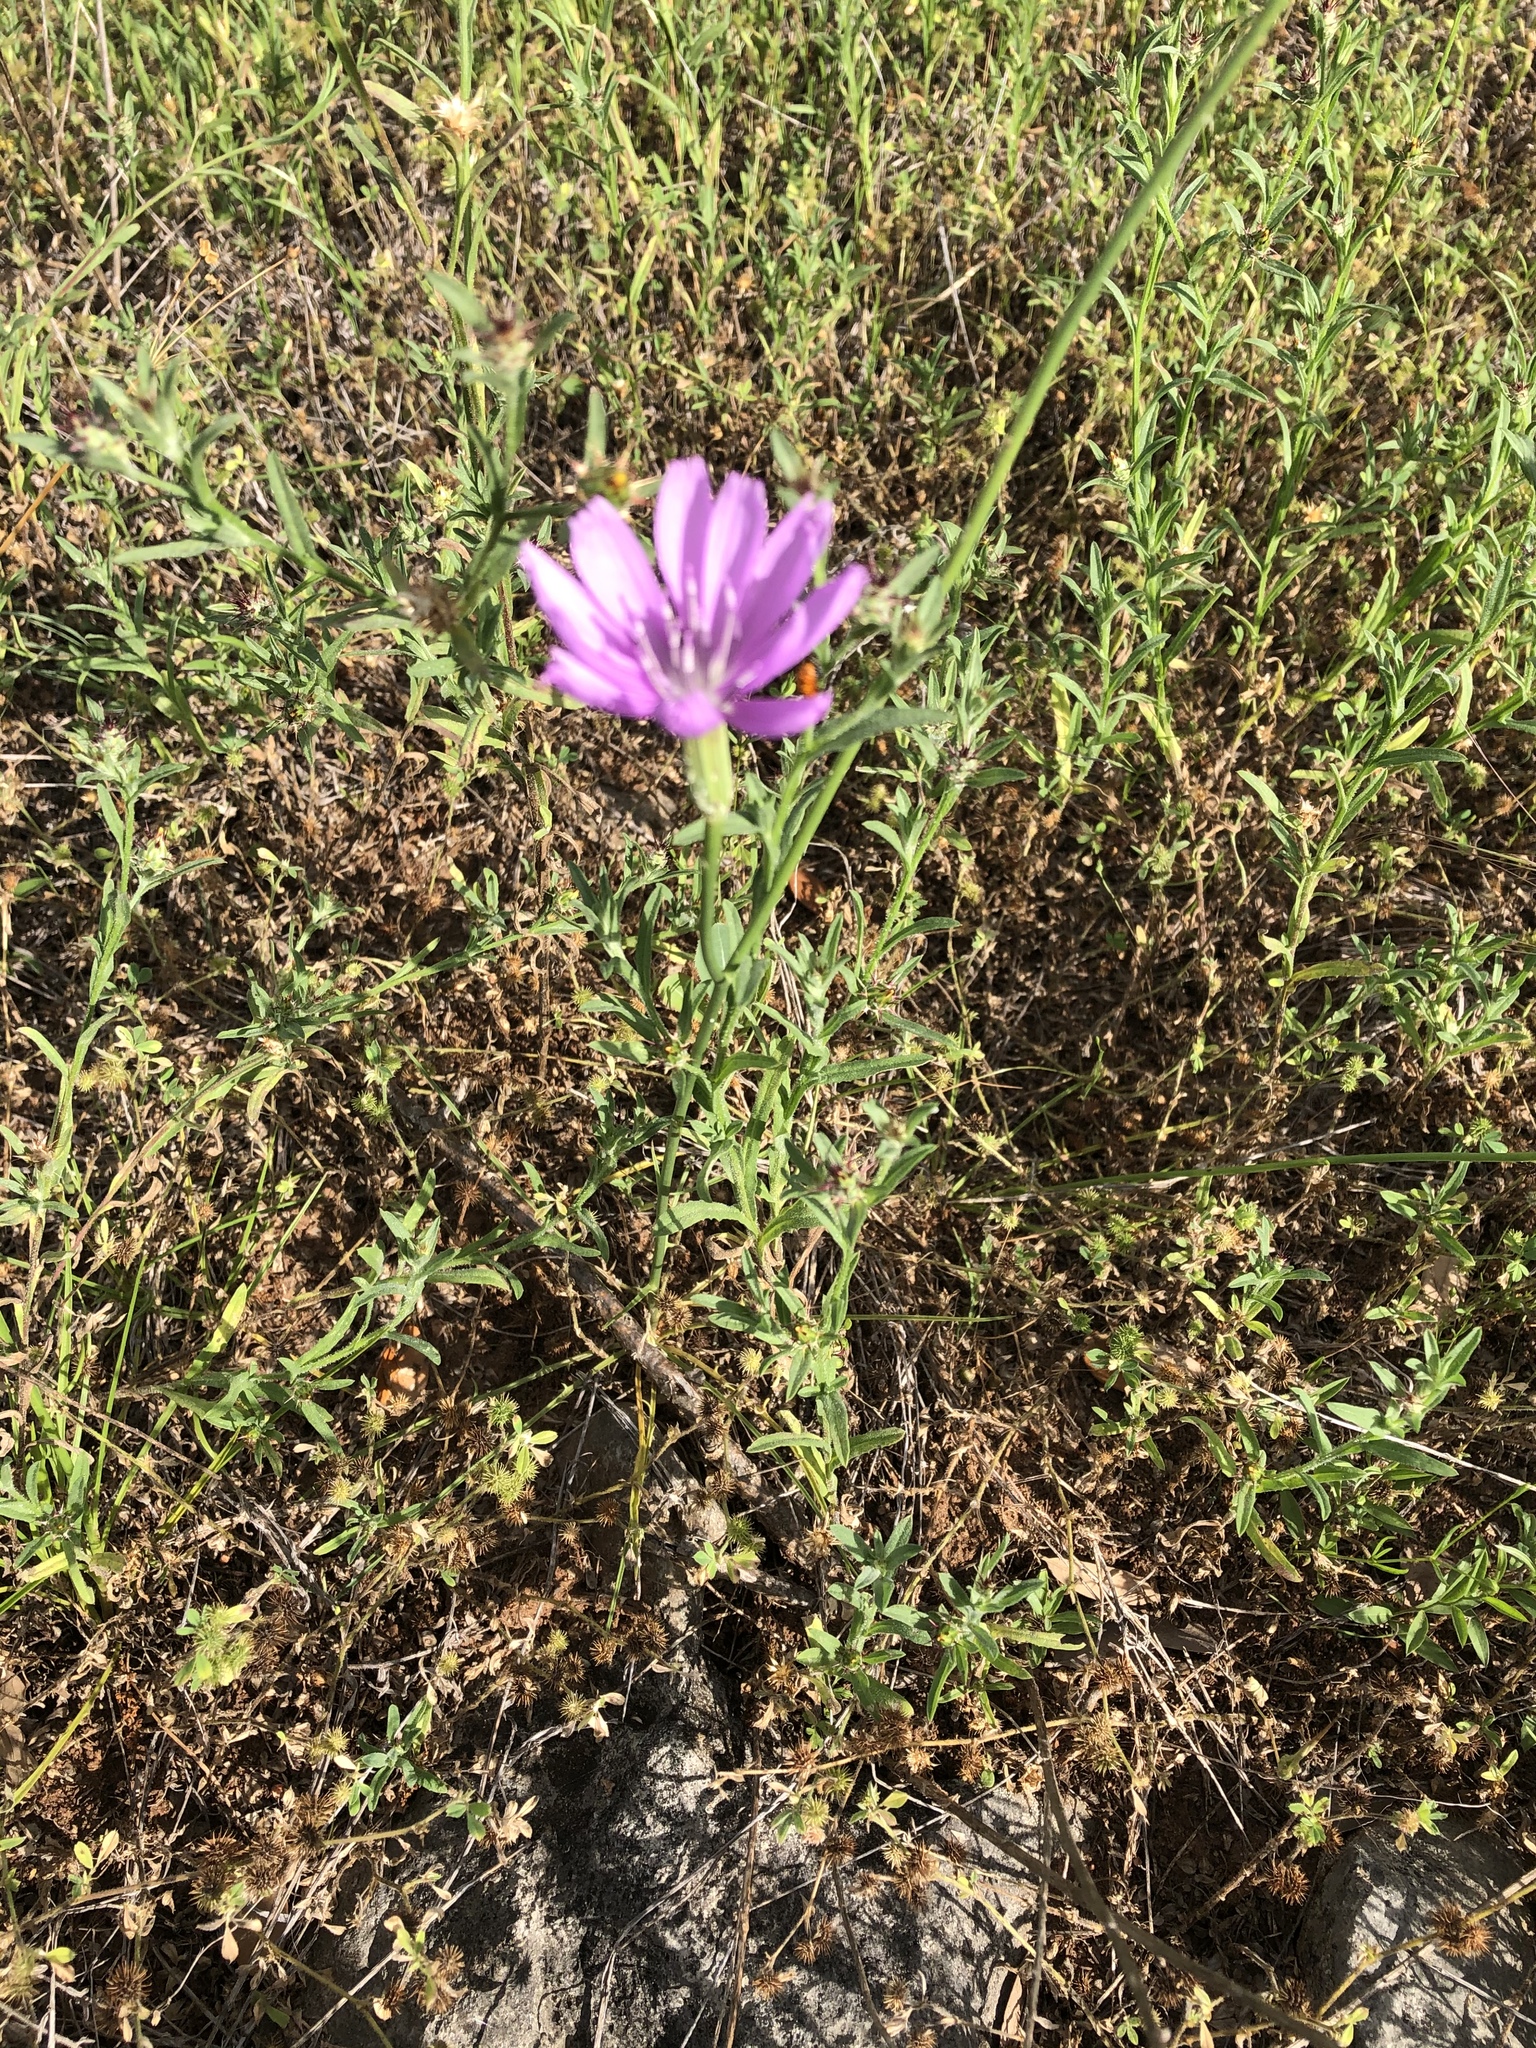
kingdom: Plantae
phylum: Tracheophyta
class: Magnoliopsida
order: Asterales
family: Asteraceae
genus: Lygodesmia
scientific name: Lygodesmia texana
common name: Texas skeleton-plant
